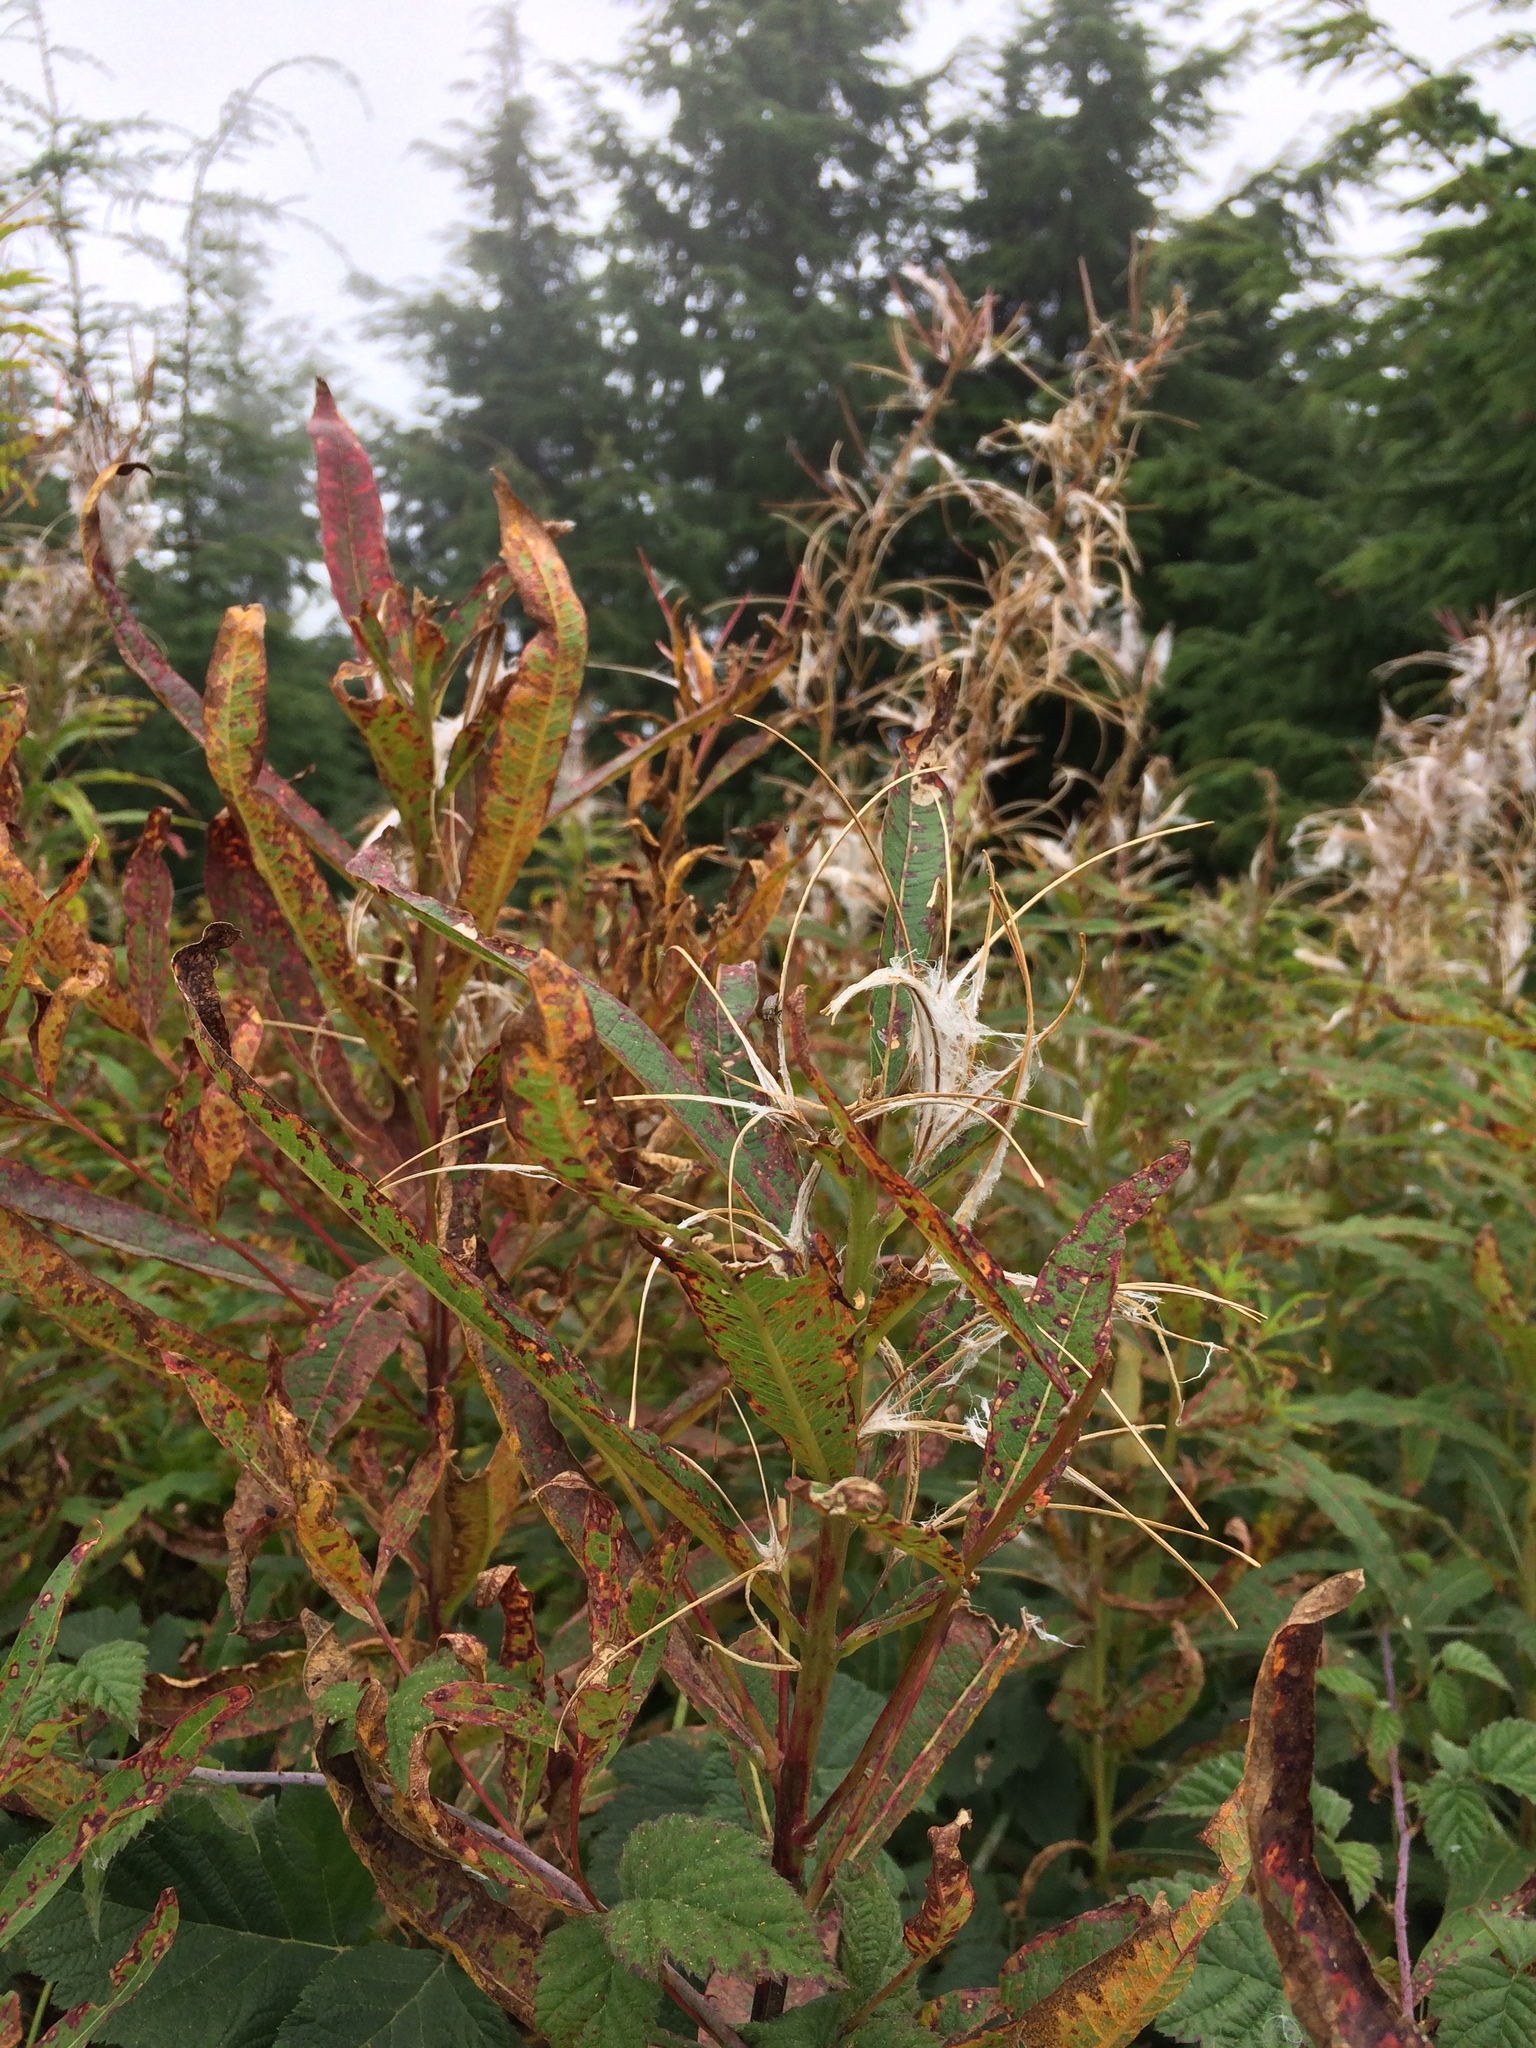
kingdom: Plantae
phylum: Tracheophyta
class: Magnoliopsida
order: Myrtales
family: Onagraceae
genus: Chamaenerion
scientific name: Chamaenerion angustifolium
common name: Fireweed
